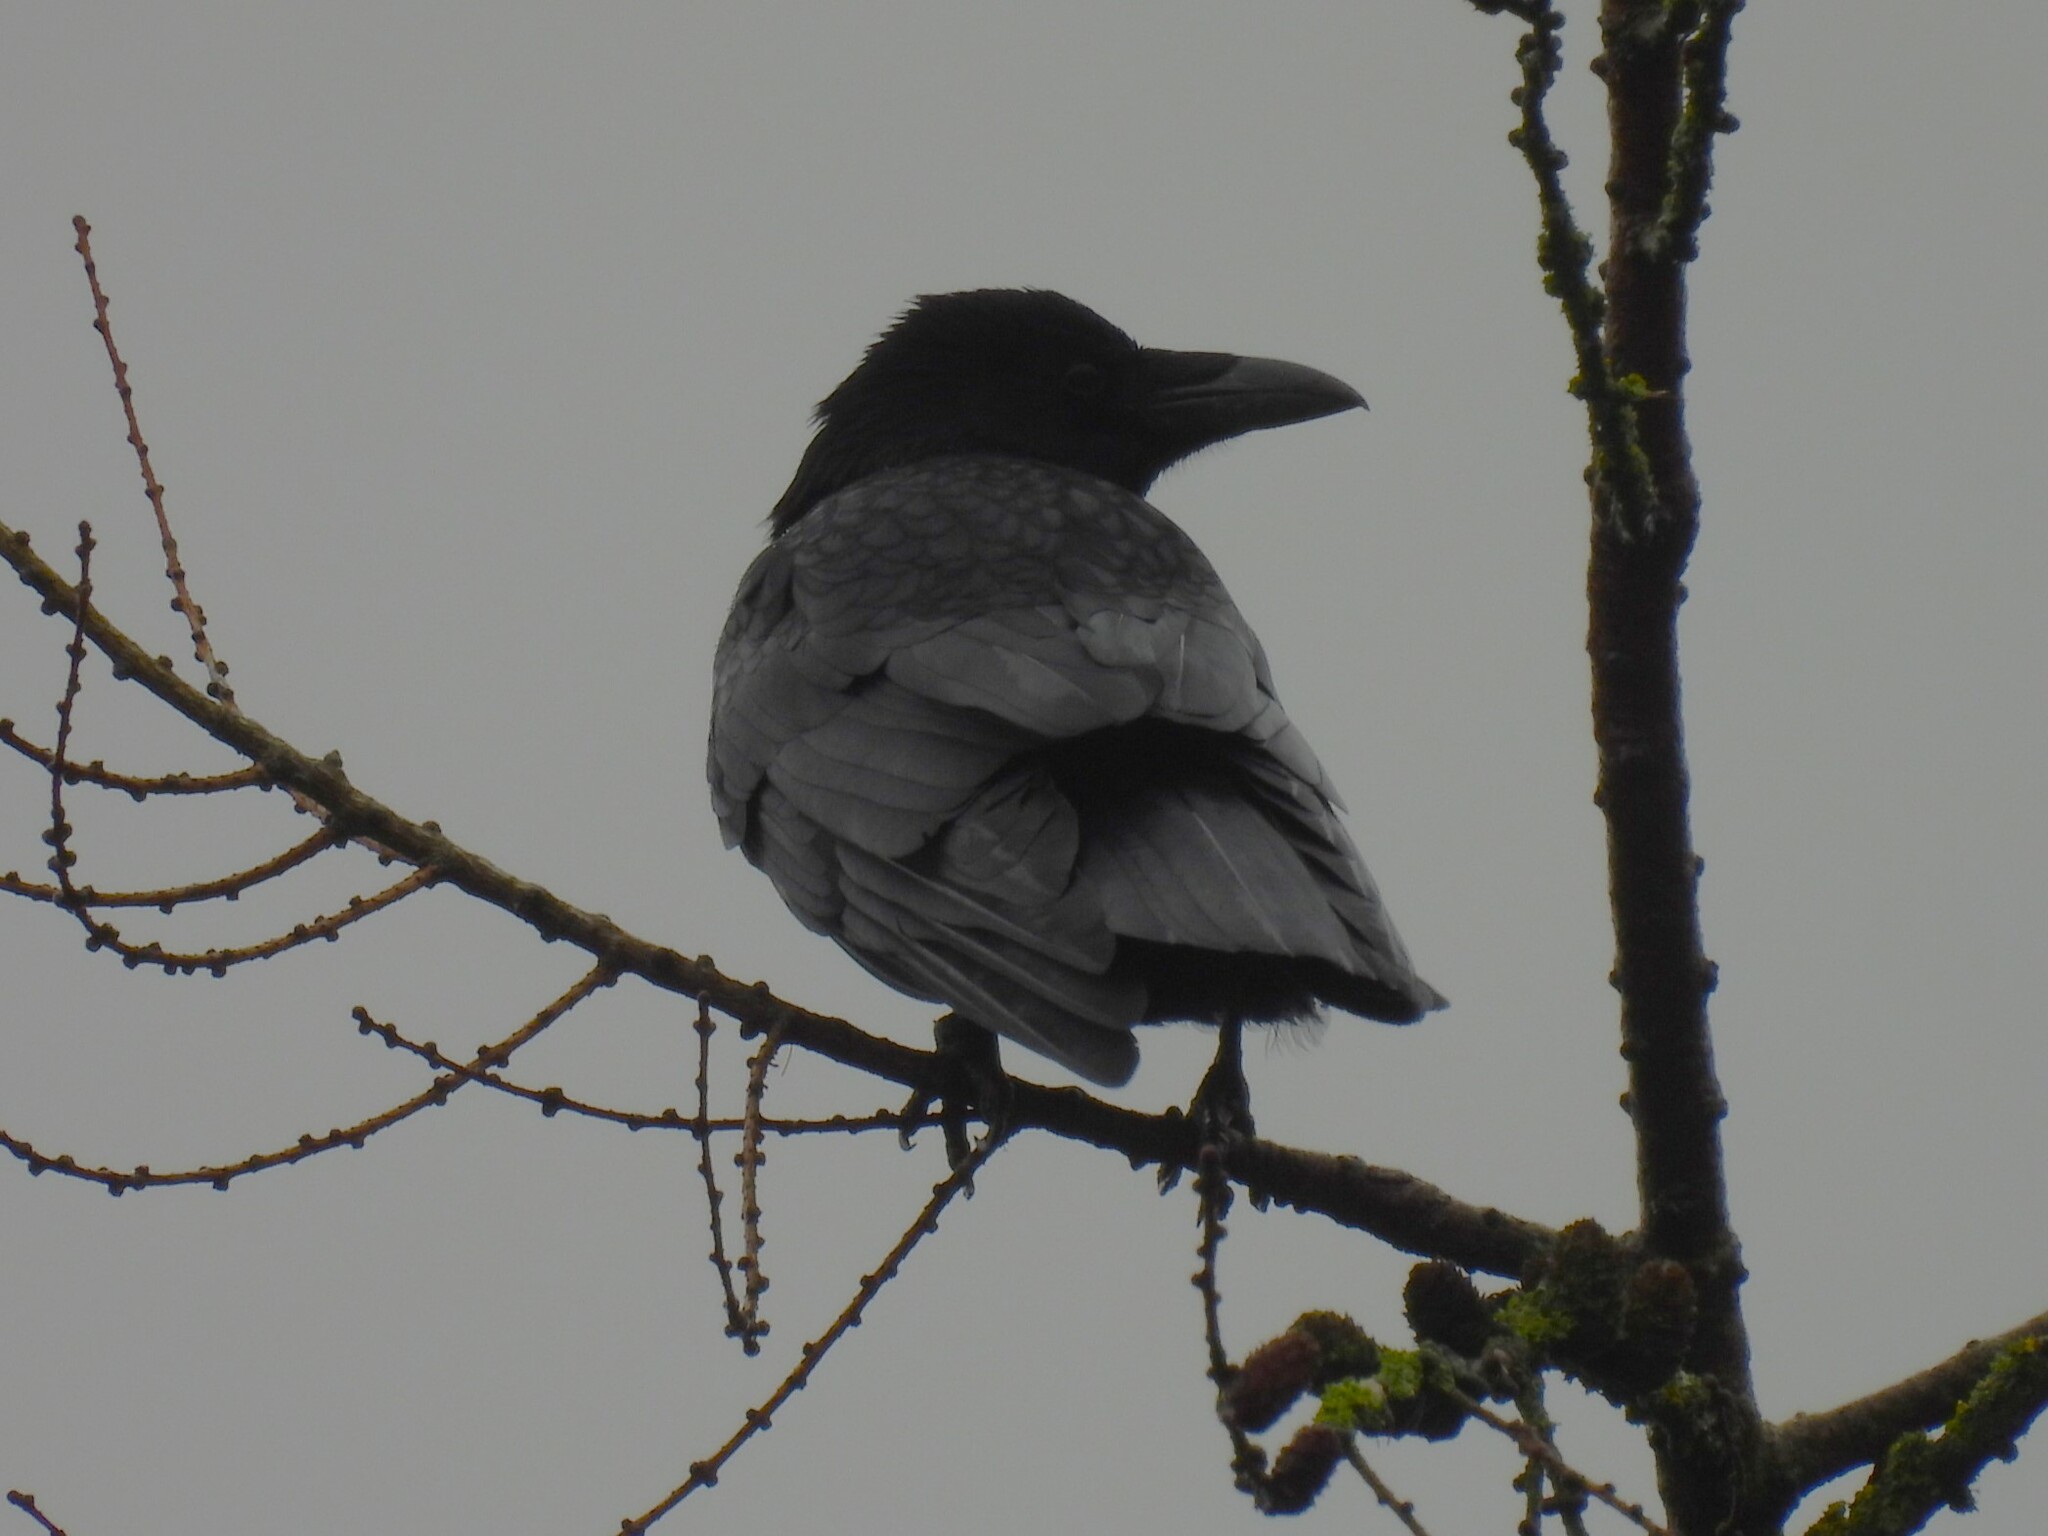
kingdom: Animalia
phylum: Chordata
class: Aves
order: Passeriformes
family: Corvidae
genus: Corvus
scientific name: Corvus corone
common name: Carrion crow
